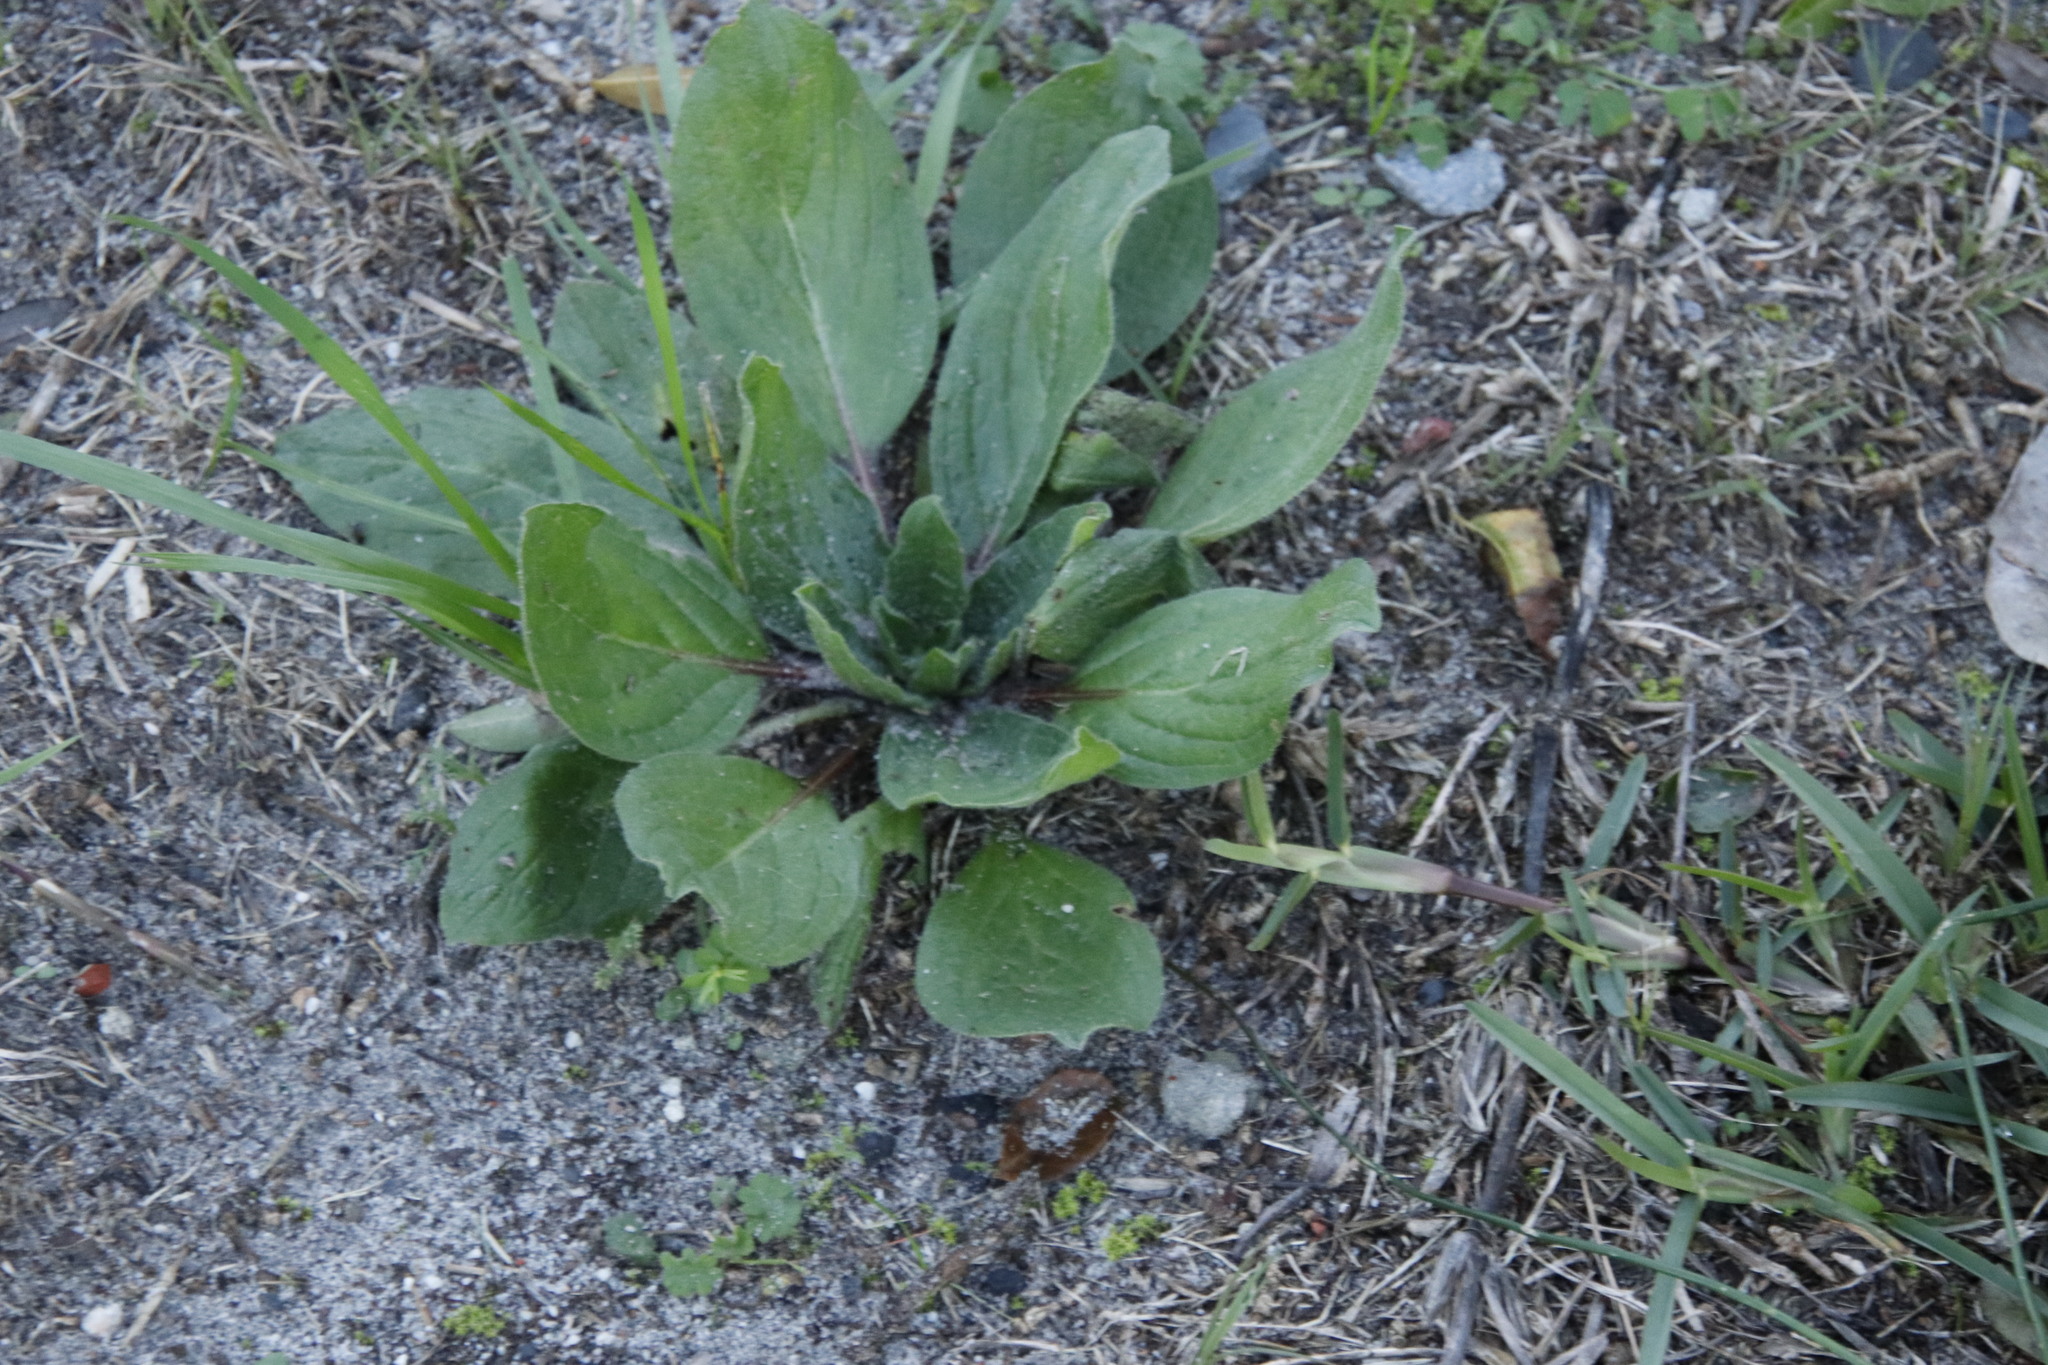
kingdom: Plantae
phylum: Tracheophyta
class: Magnoliopsida
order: Boraginales
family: Boraginaceae
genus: Echium
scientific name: Echium plantagineum
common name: Purple viper's-bugloss
